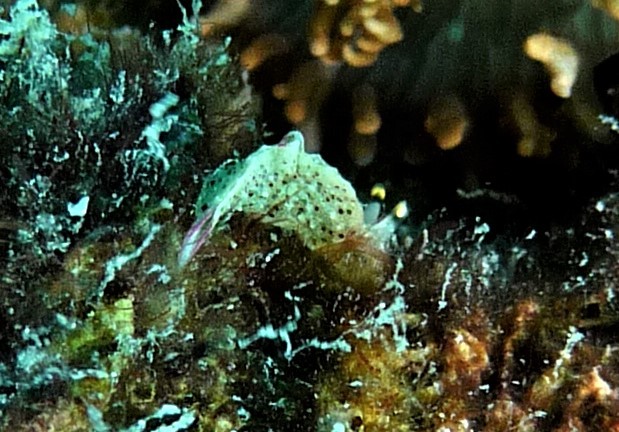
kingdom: Animalia
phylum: Mollusca
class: Gastropoda
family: Plakobranchidae
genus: Elysia
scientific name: Elysia asbecki
